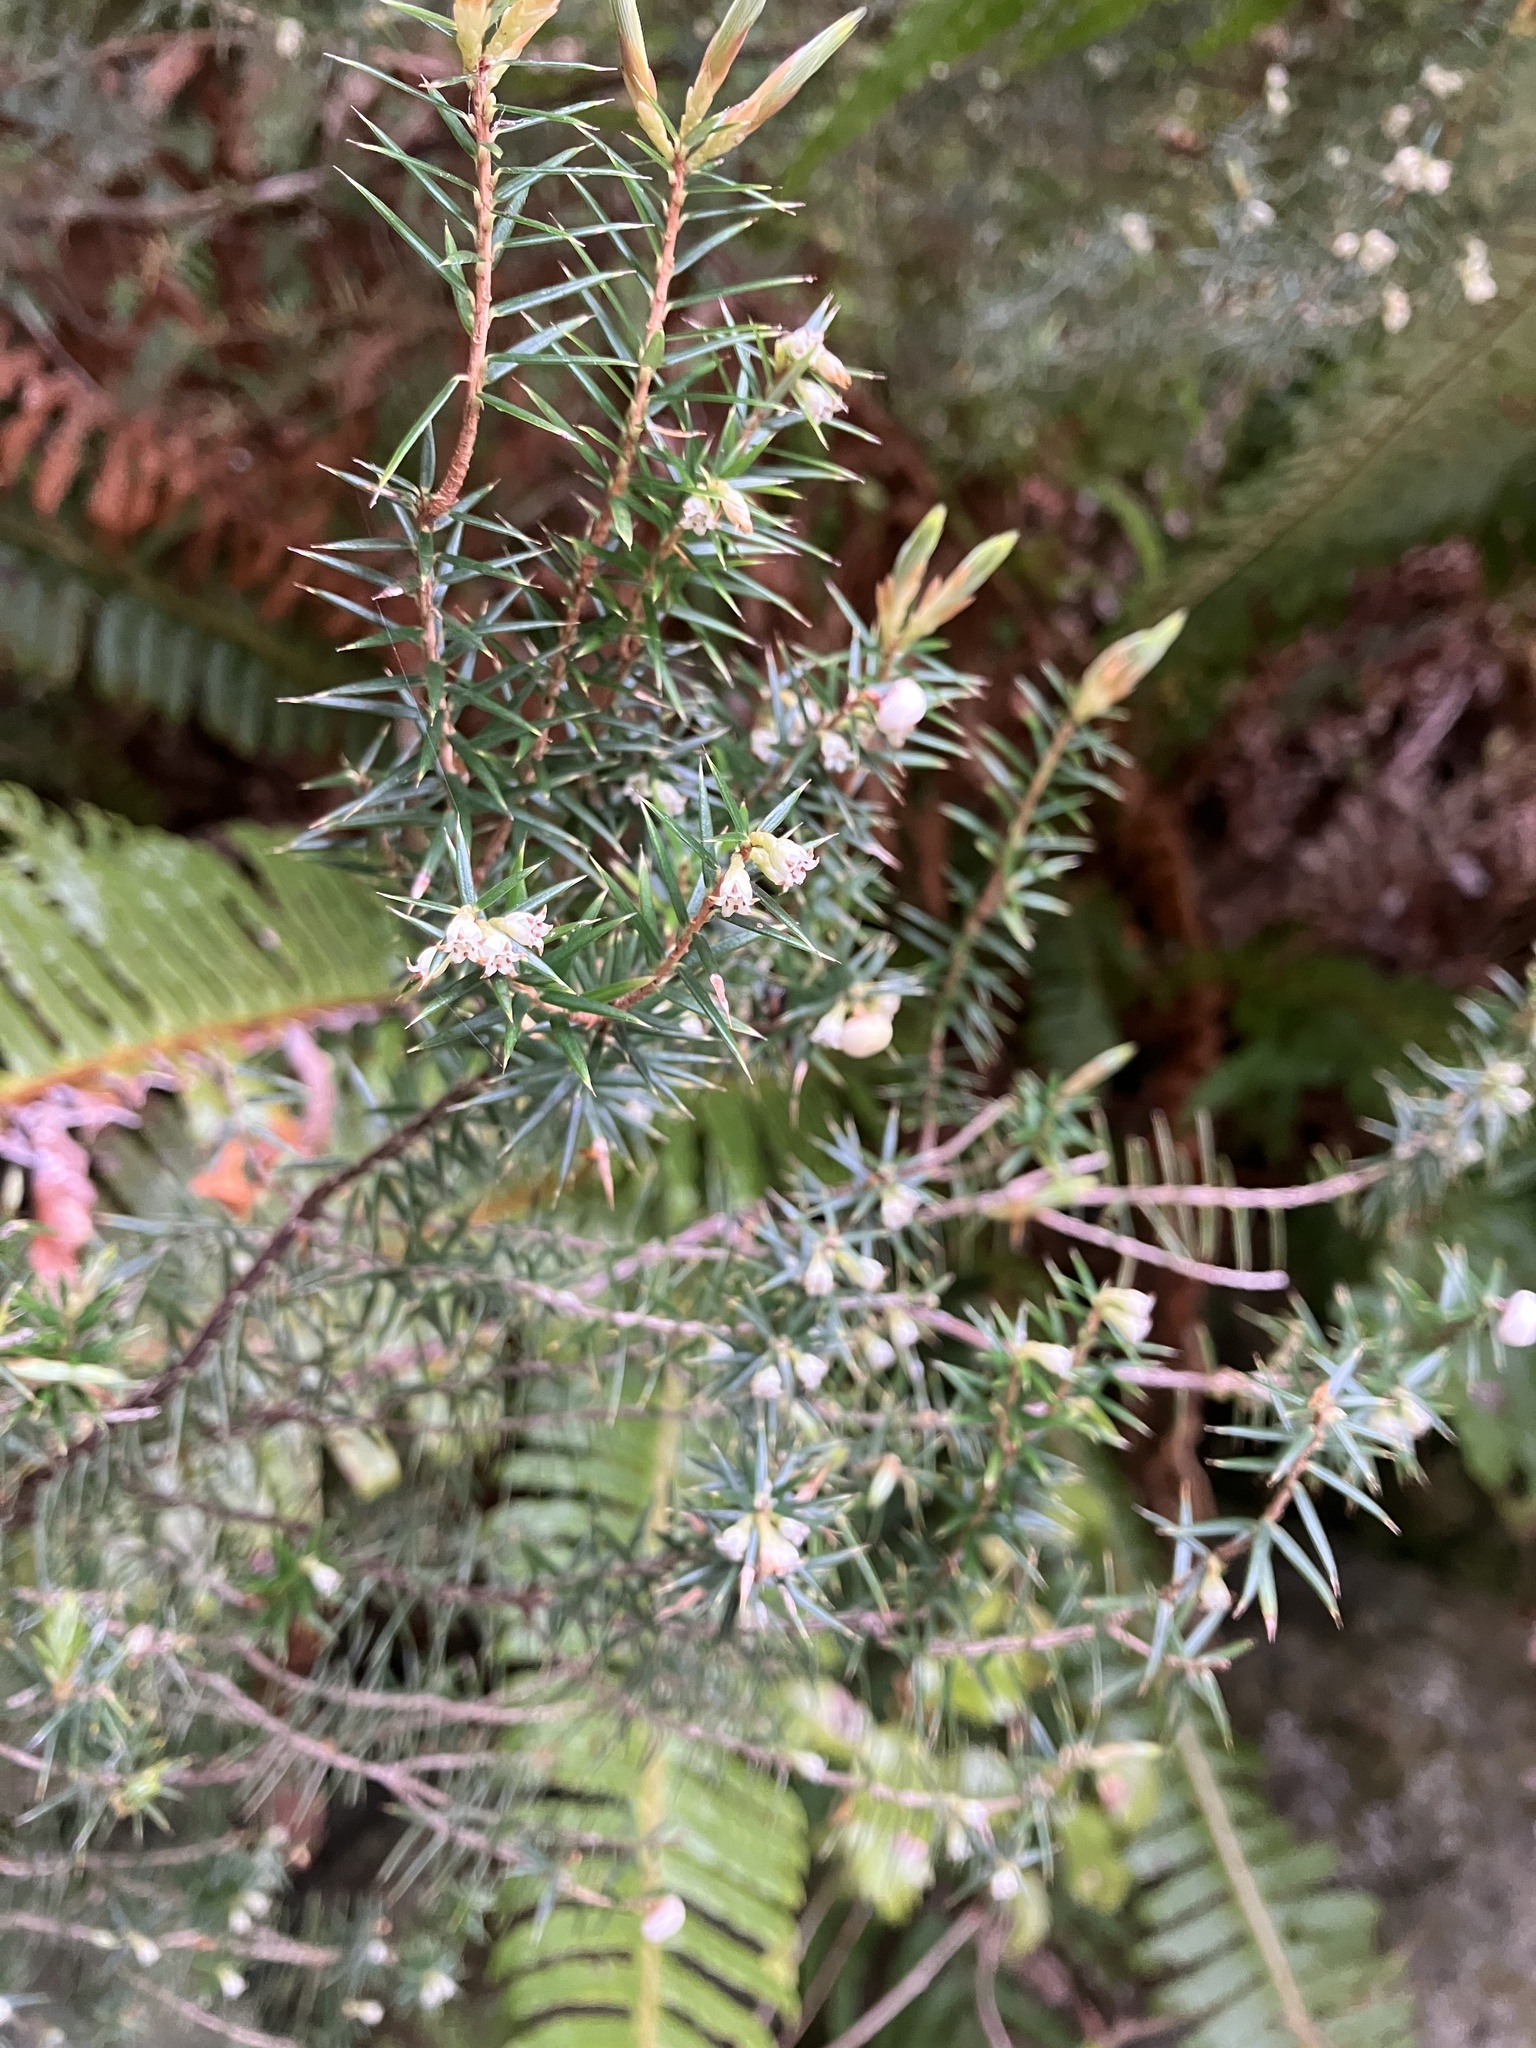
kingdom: Plantae
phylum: Tracheophyta
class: Magnoliopsida
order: Ericales
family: Ericaceae
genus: Leptecophylla
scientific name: Leptecophylla juniperina
